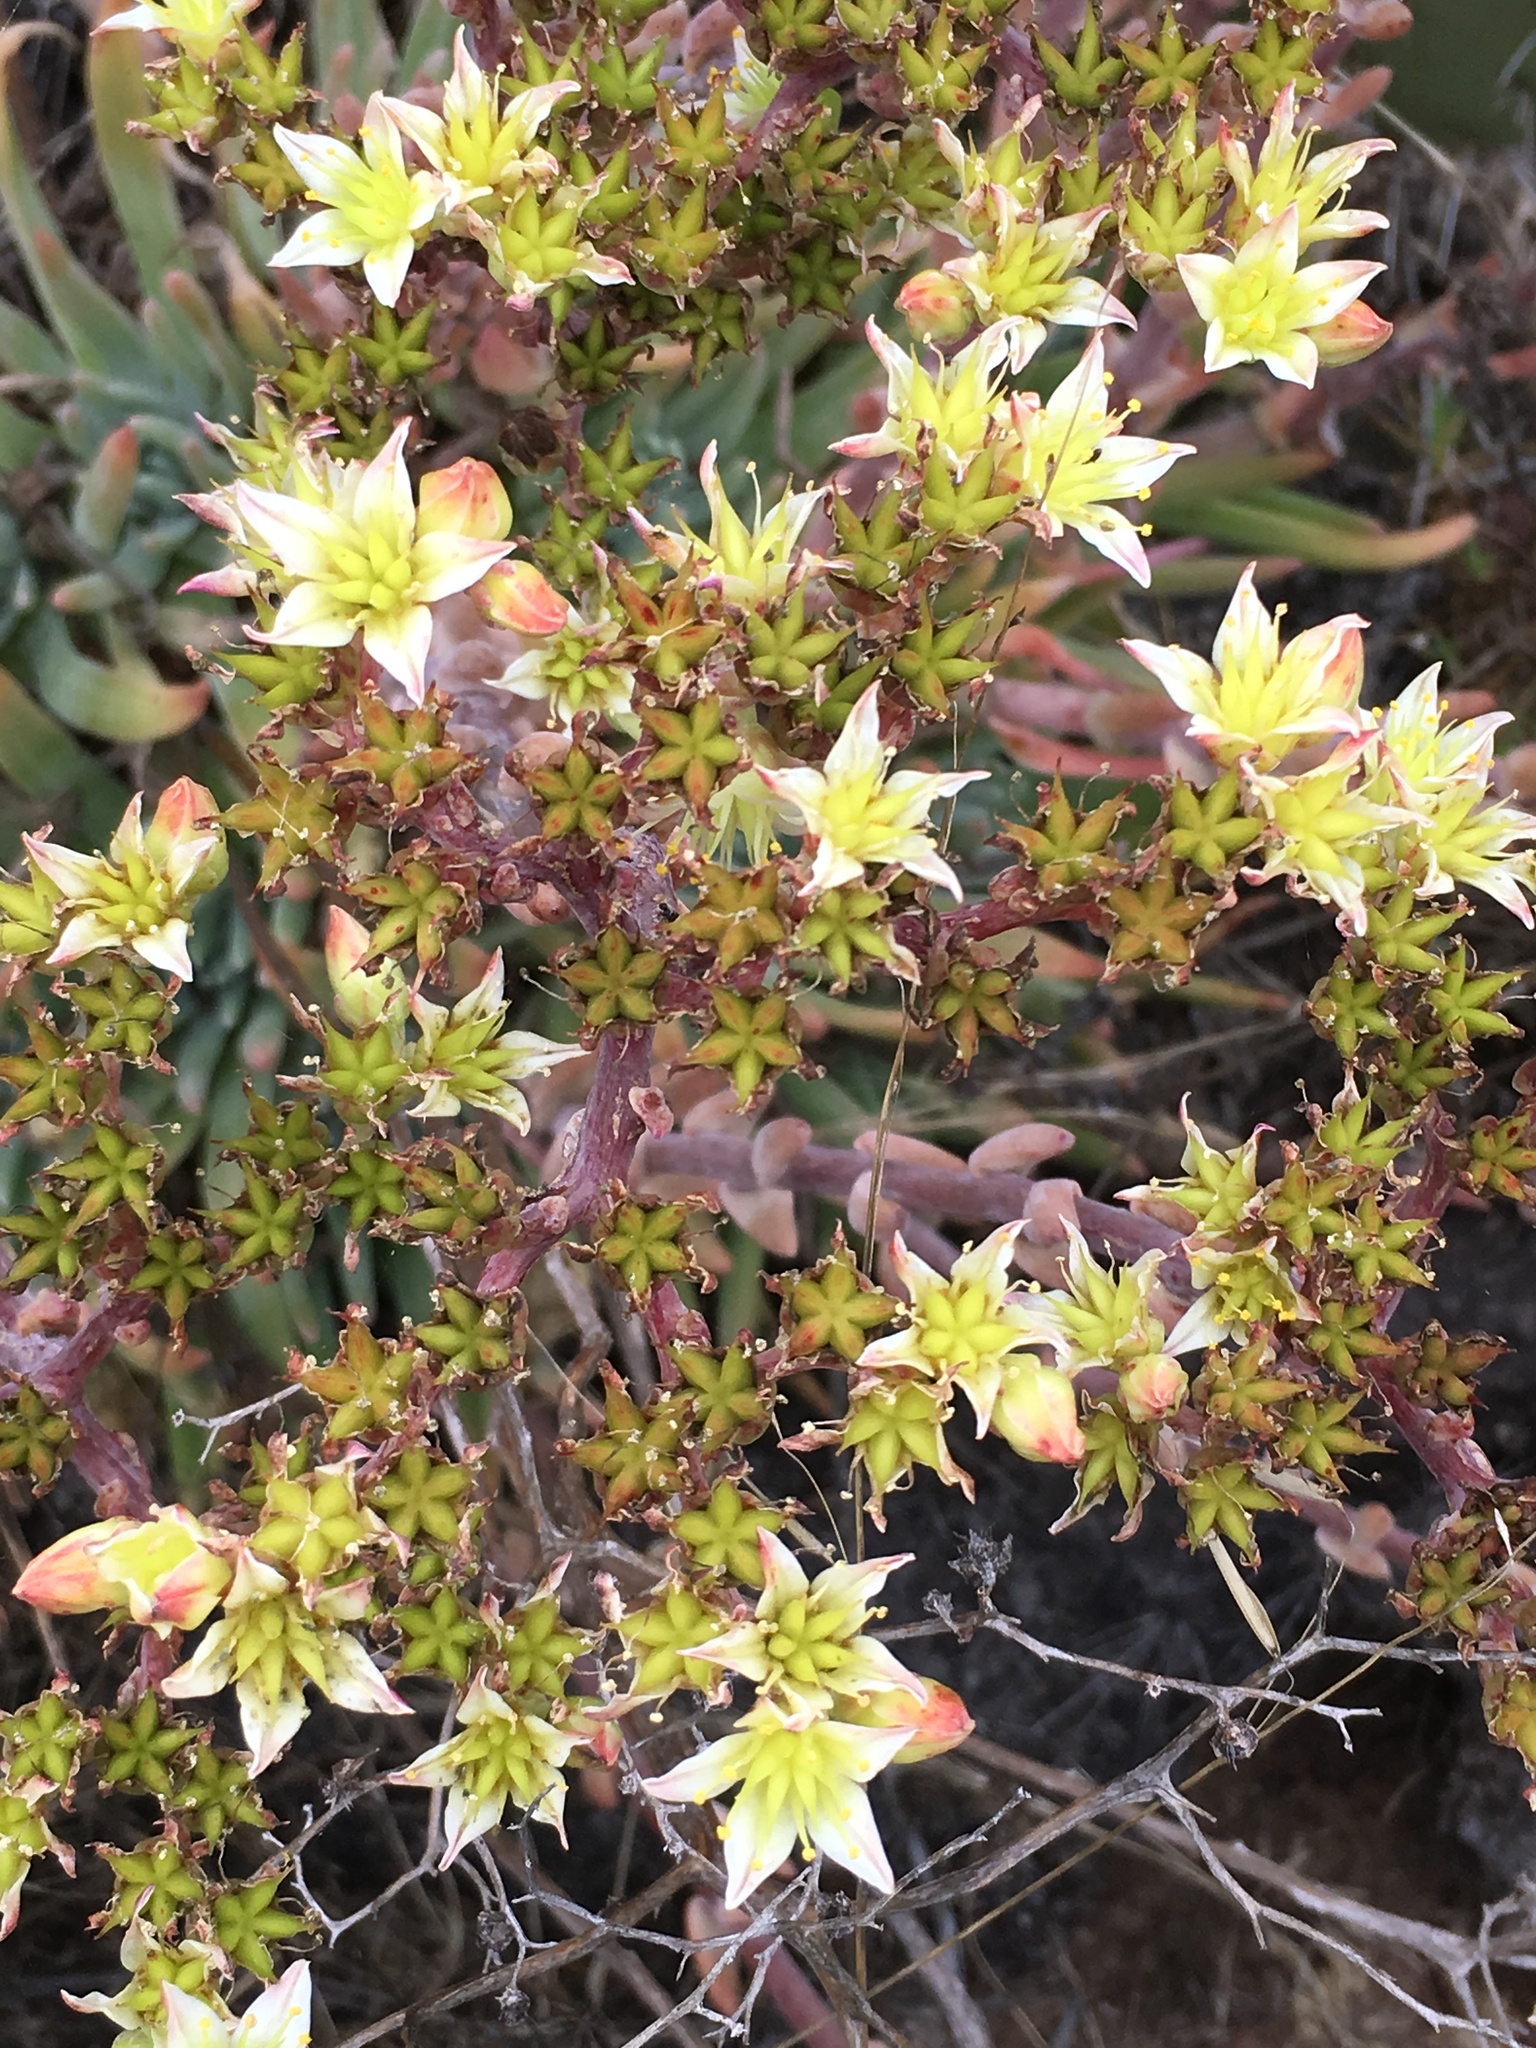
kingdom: Plantae
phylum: Tracheophyta
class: Magnoliopsida
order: Saxifragales
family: Crassulaceae
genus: Dudleya
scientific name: Dudleya virens
